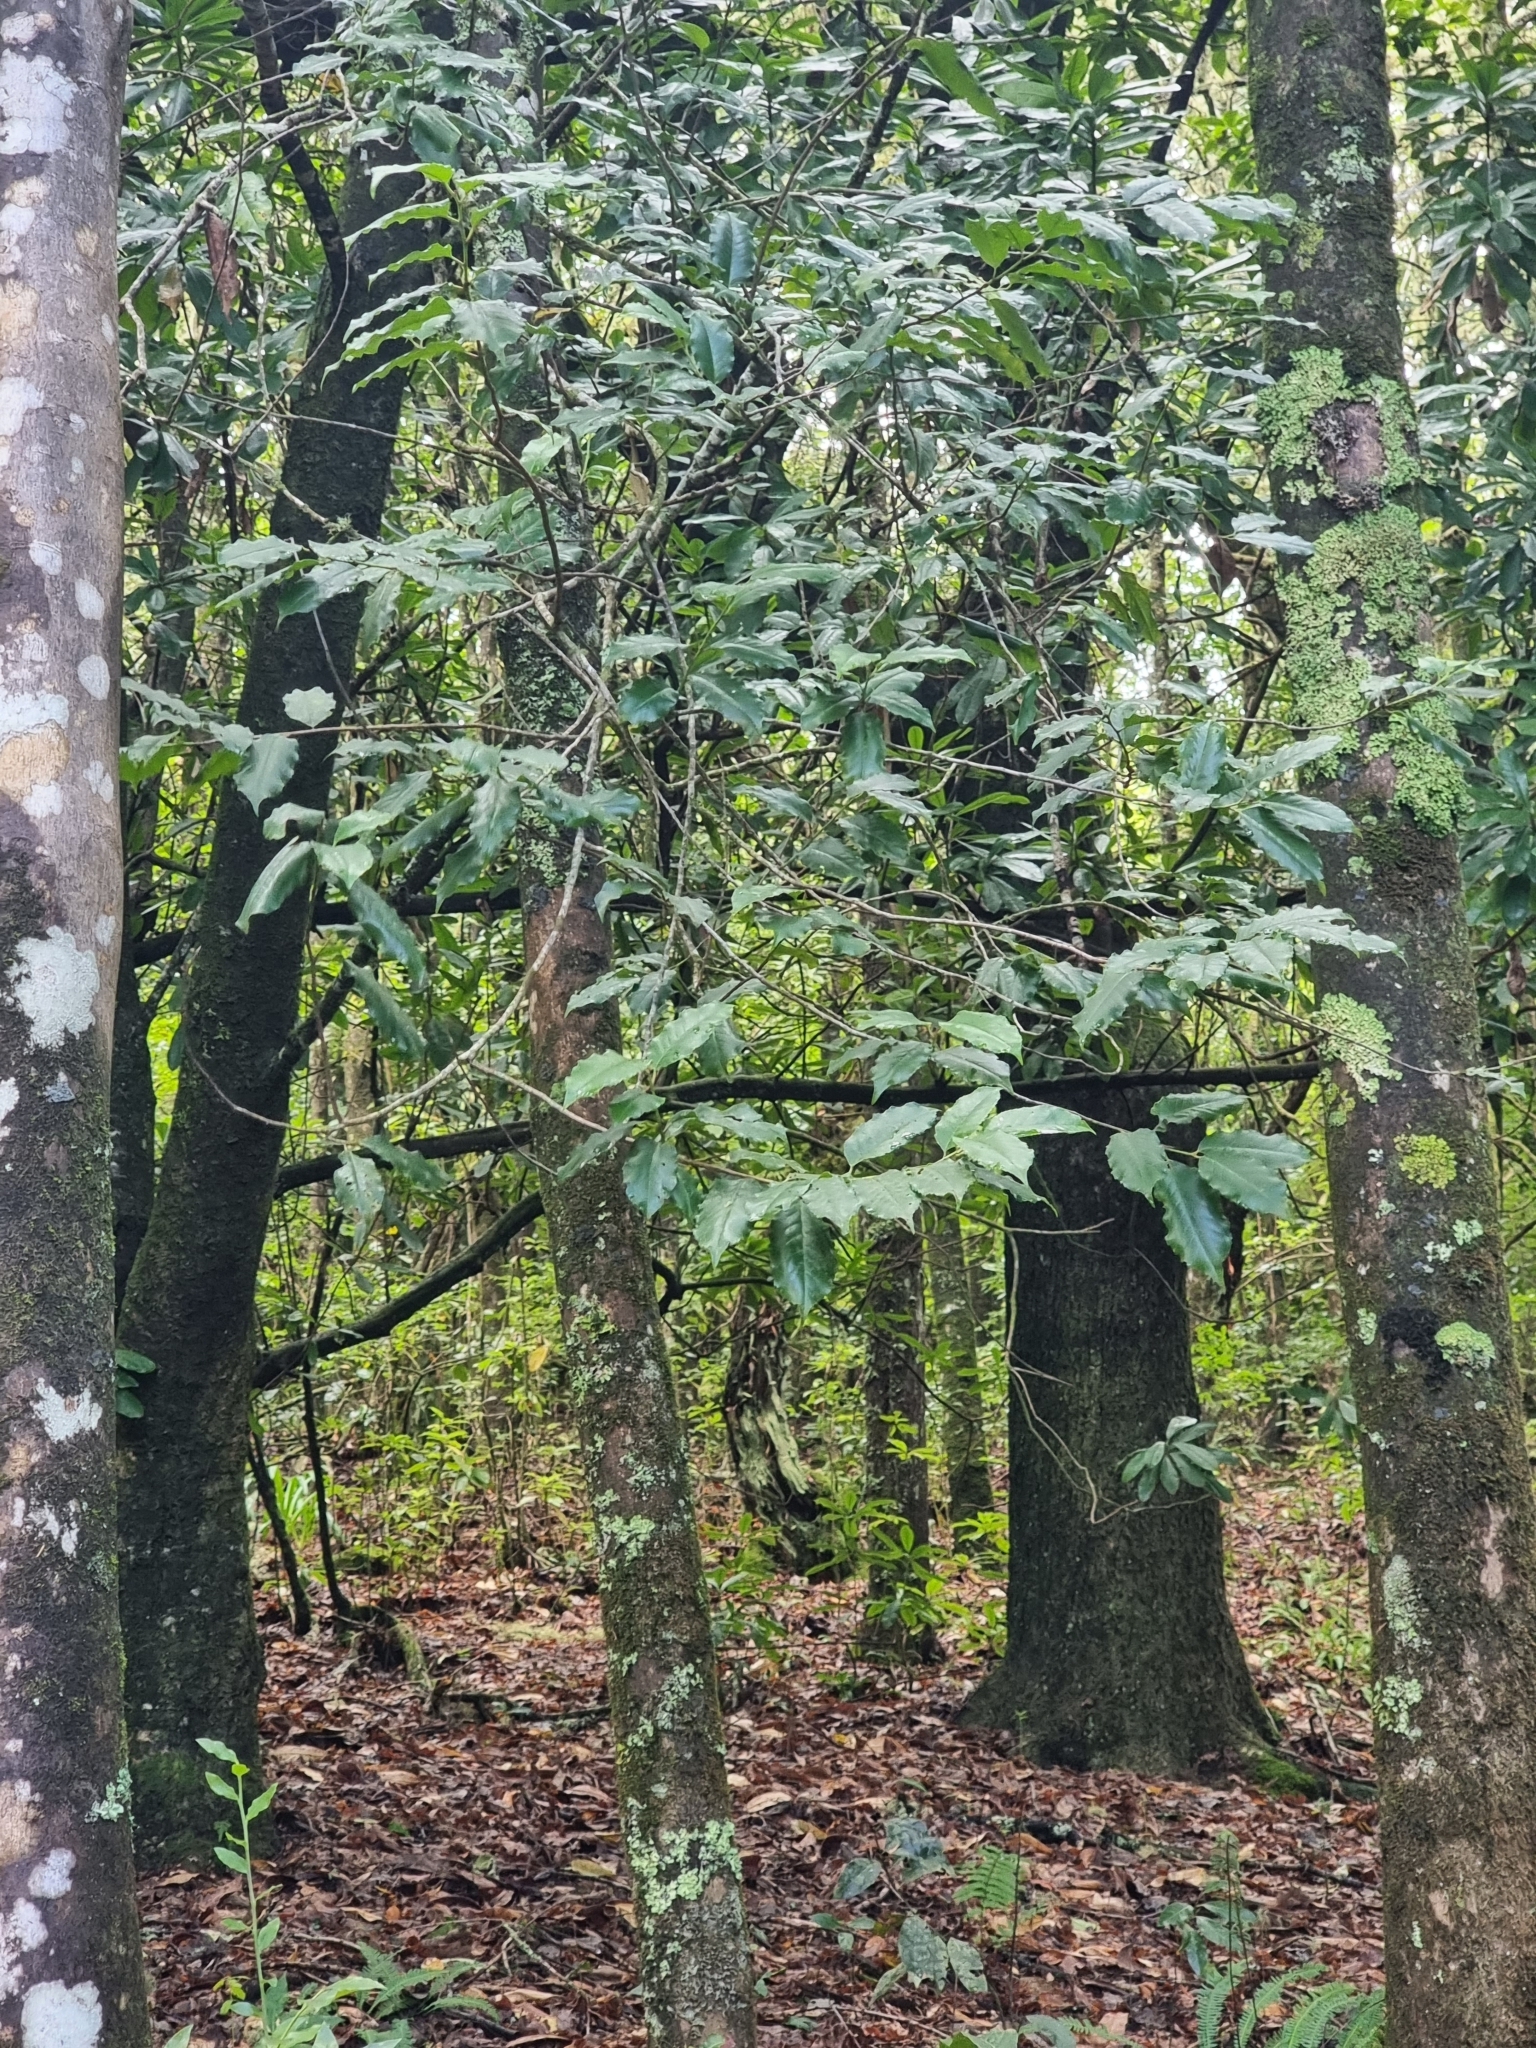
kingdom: Plantae
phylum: Tracheophyta
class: Magnoliopsida
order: Rosales
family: Rosaceae
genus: Prunus
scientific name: Prunus hixa
